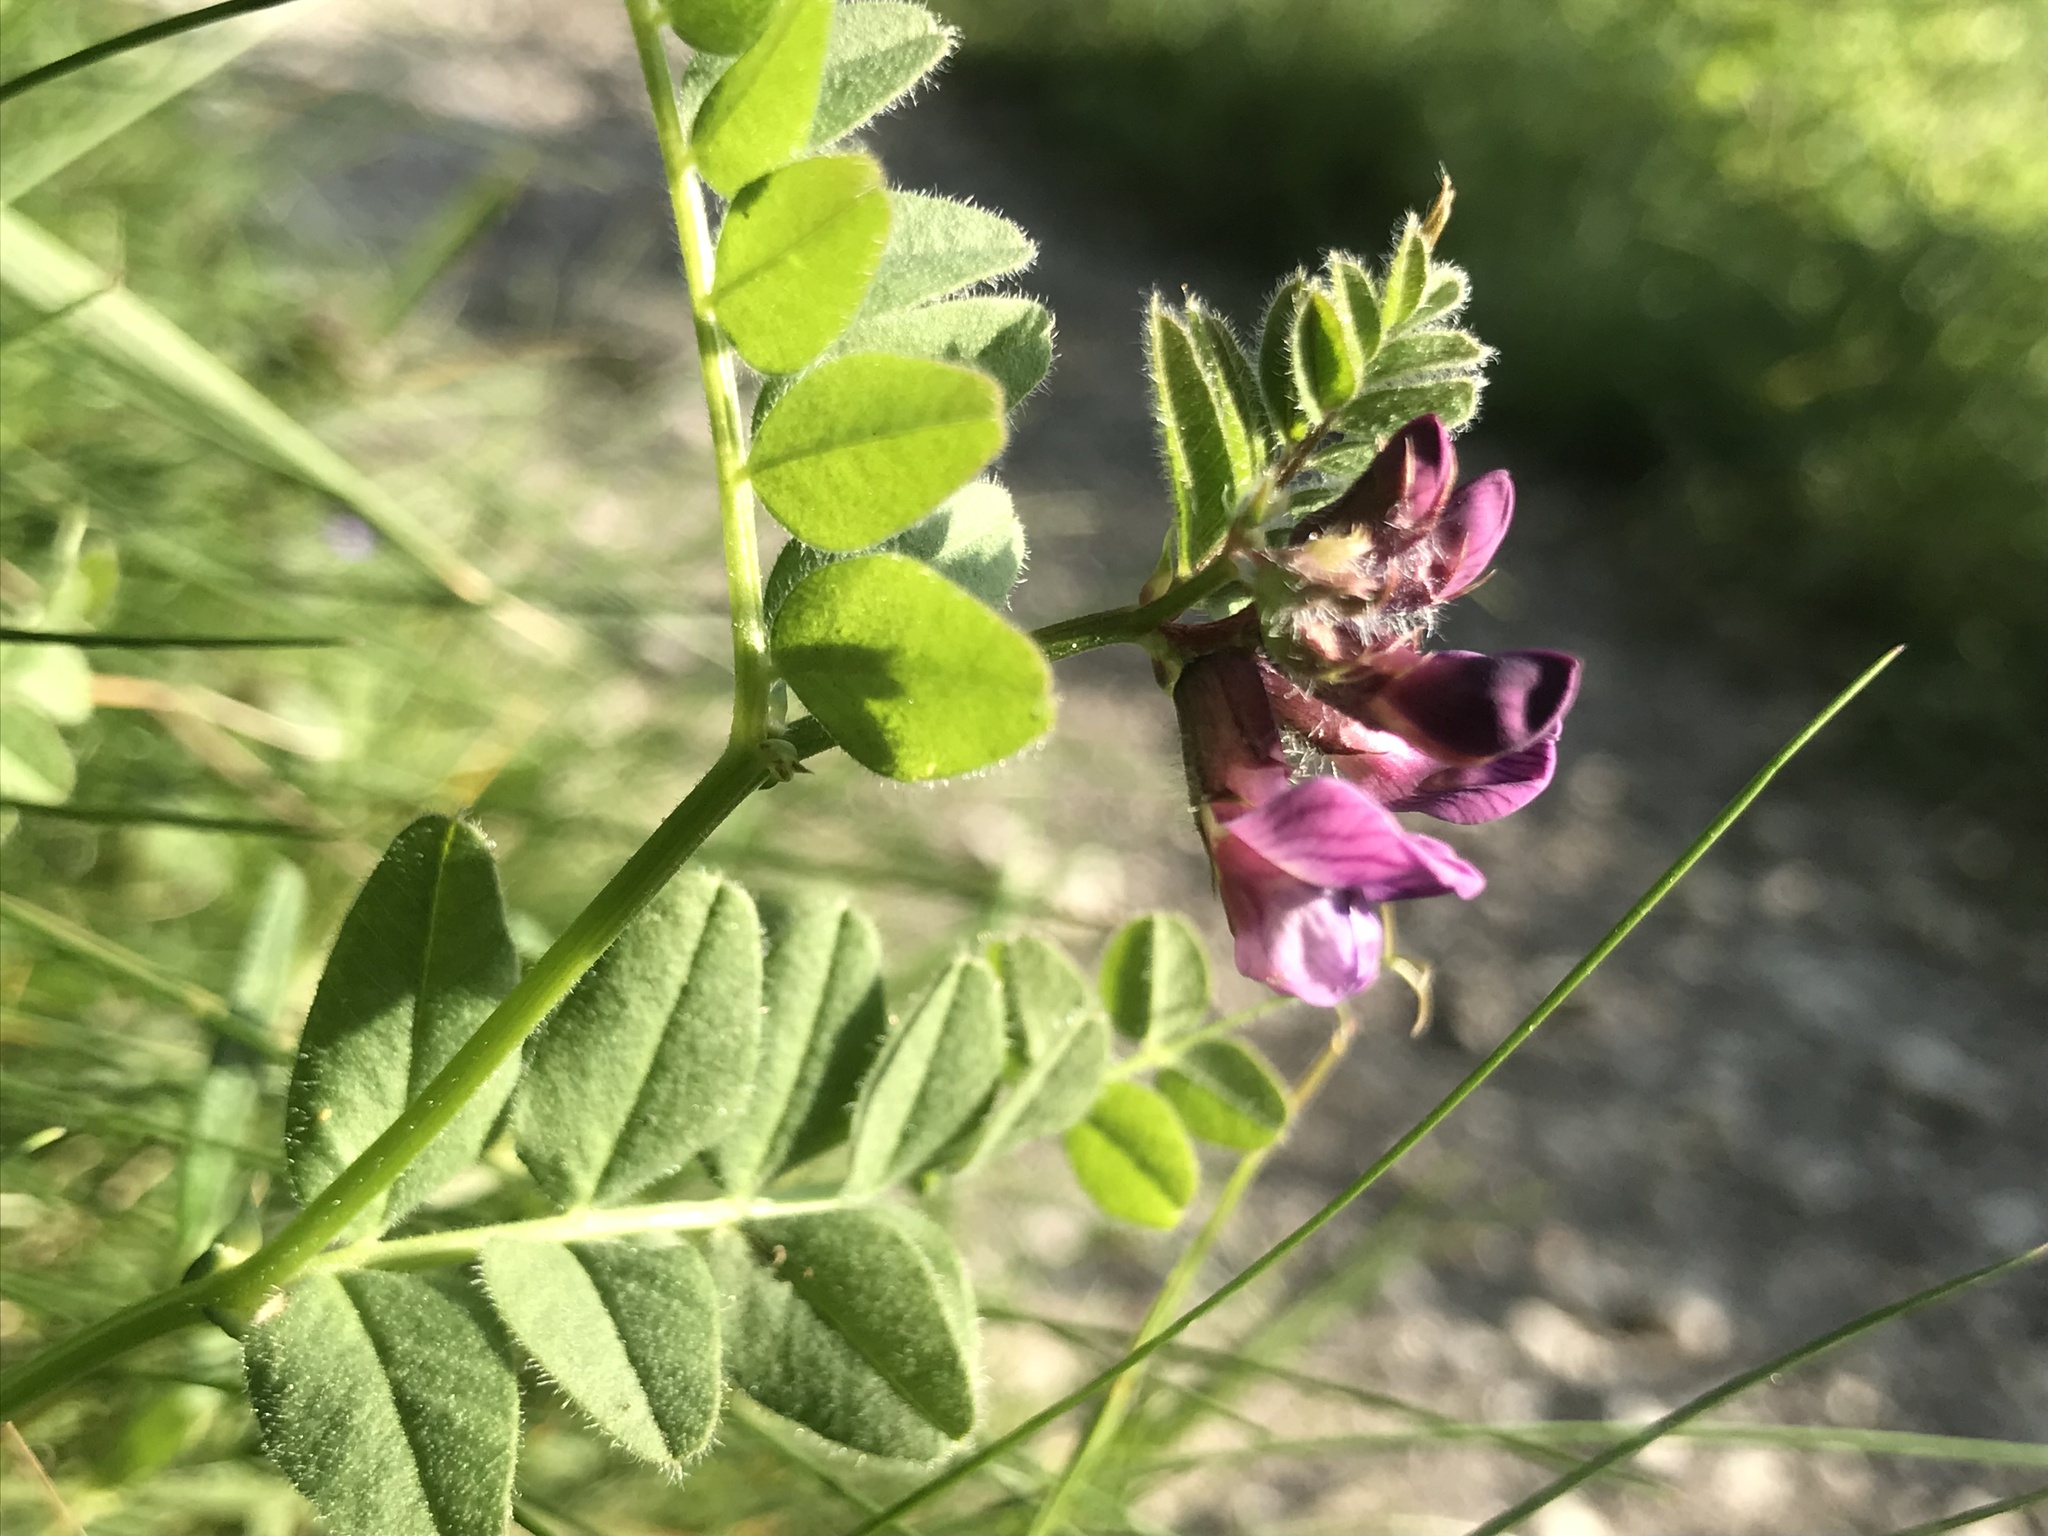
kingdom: Plantae
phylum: Tracheophyta
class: Magnoliopsida
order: Fabales
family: Fabaceae
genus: Vicia
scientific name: Vicia sepium
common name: Bush vetch
